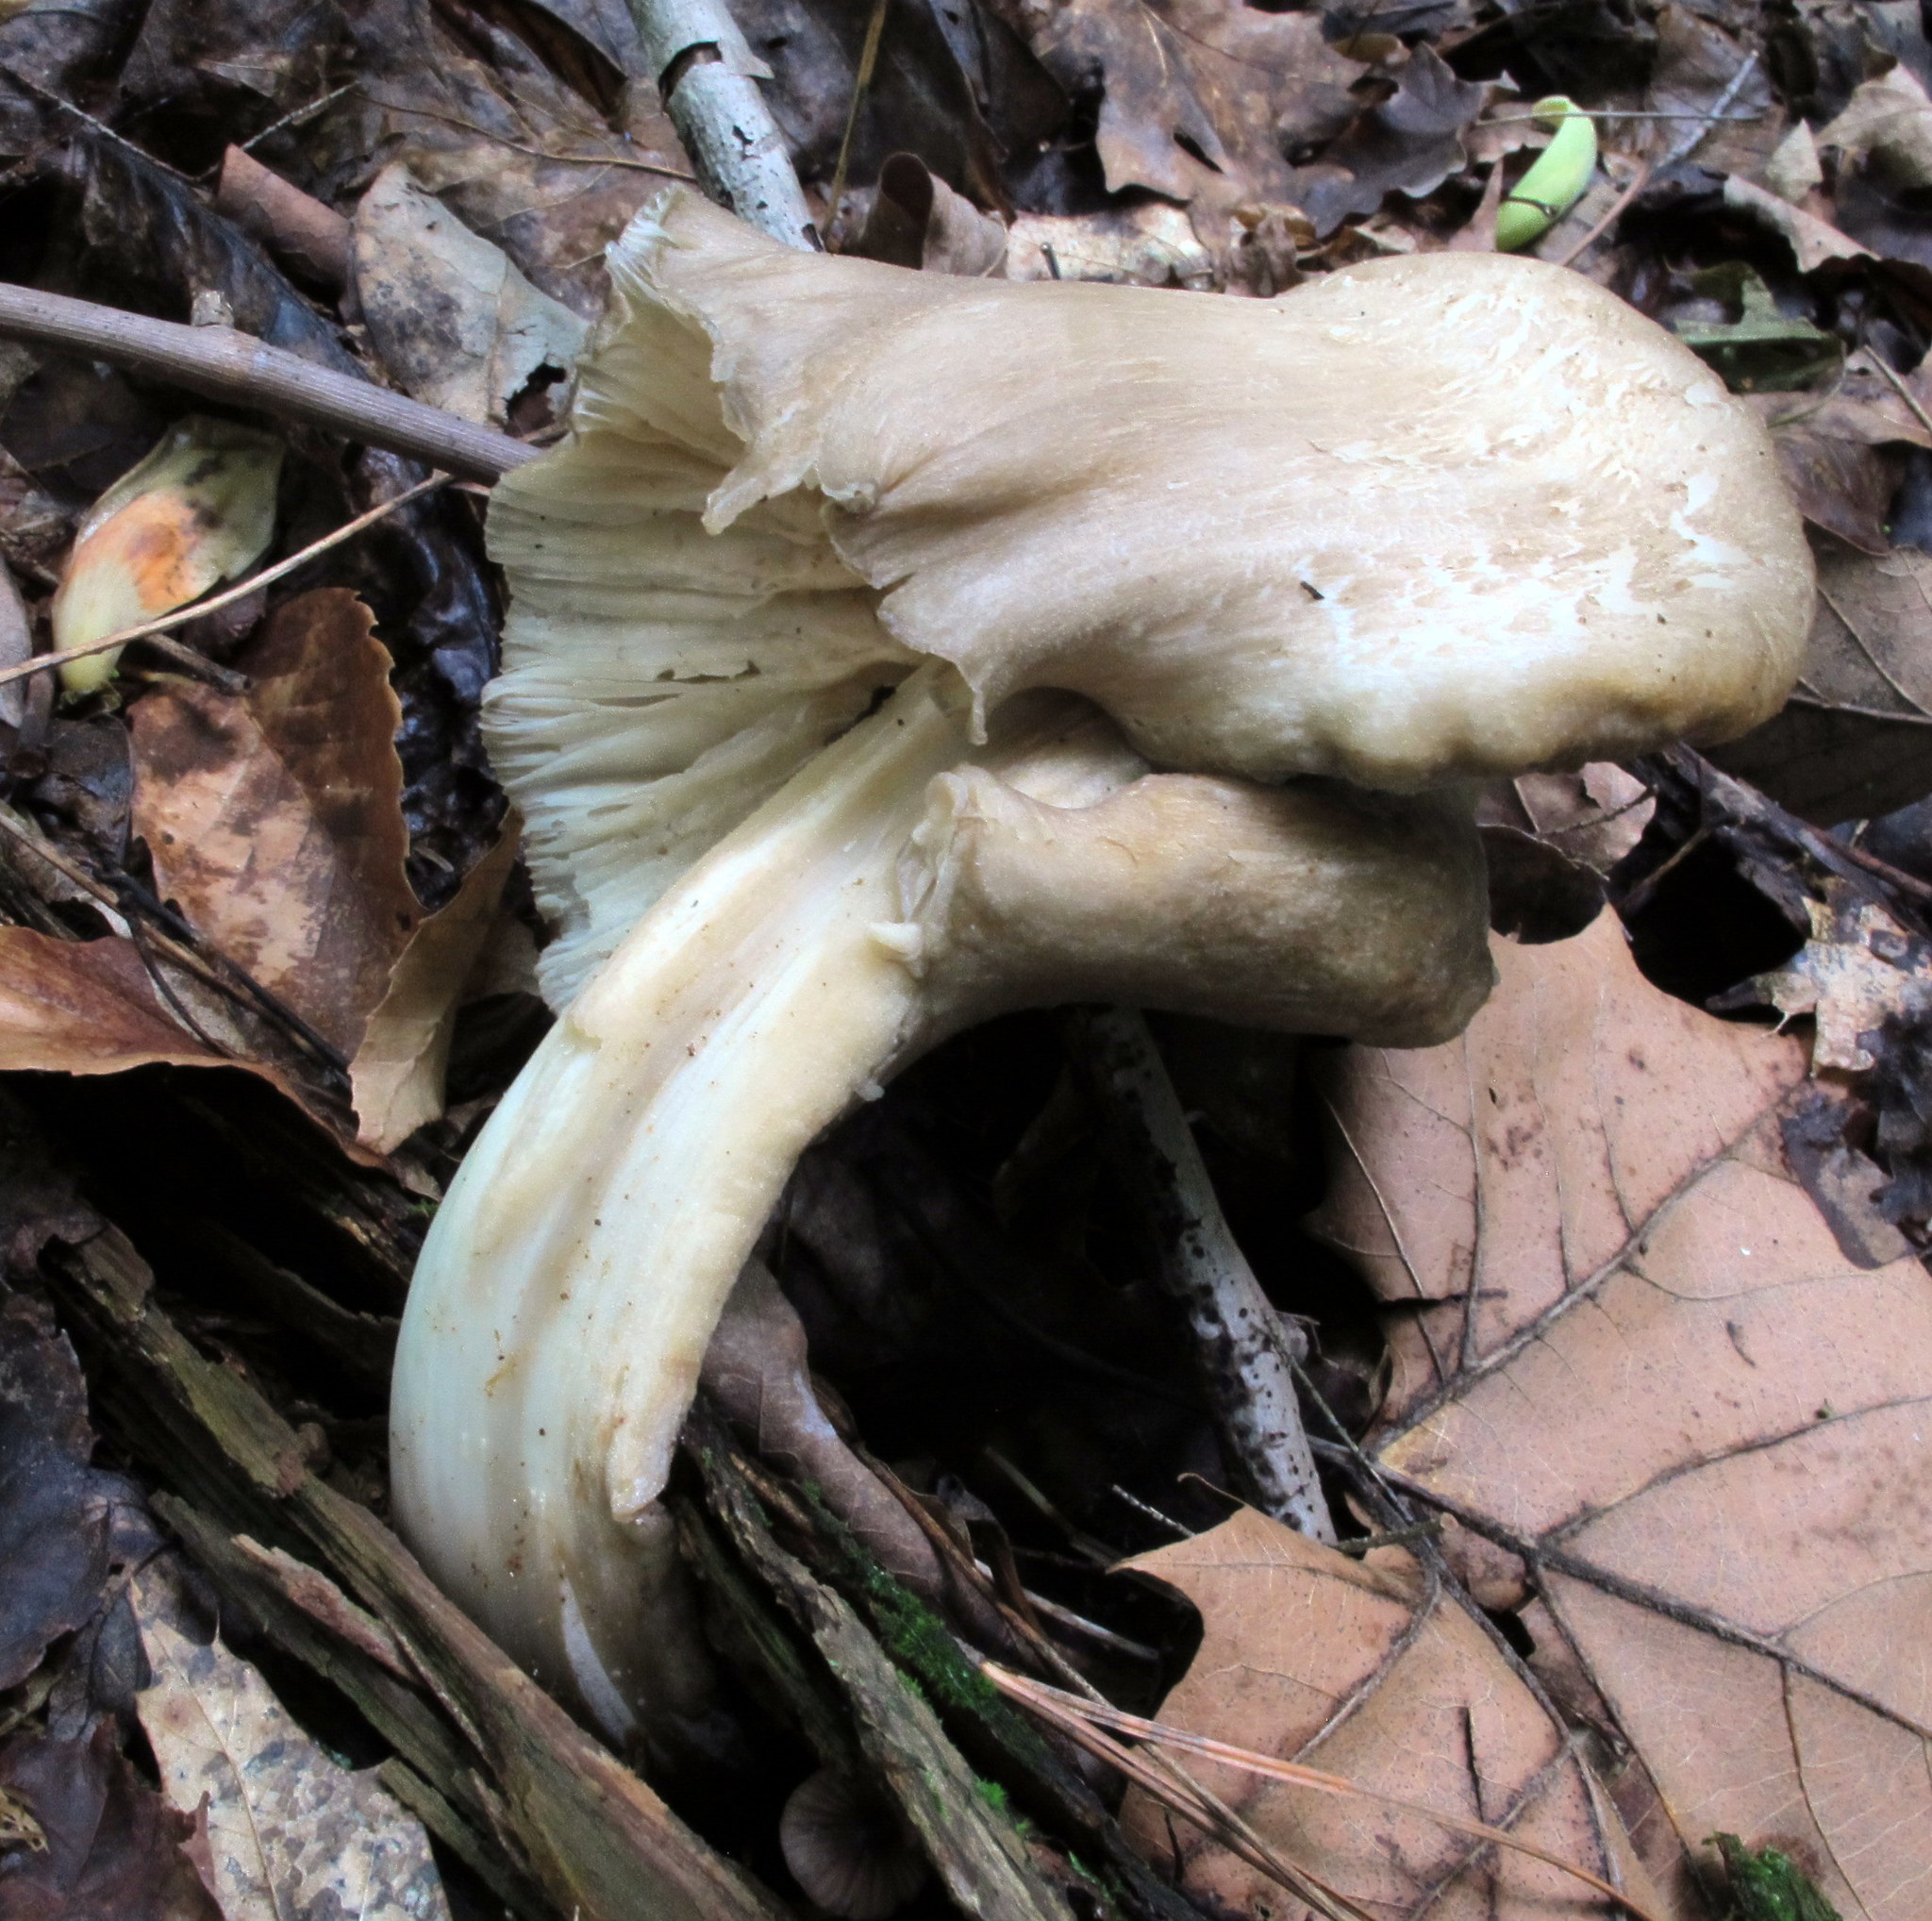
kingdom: Fungi
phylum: Basidiomycota
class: Agaricomycetes
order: Agaricales
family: Tricholomataceae
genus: Megacollybia
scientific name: Megacollybia rodmanii
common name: Eastern american platterful mushroom
